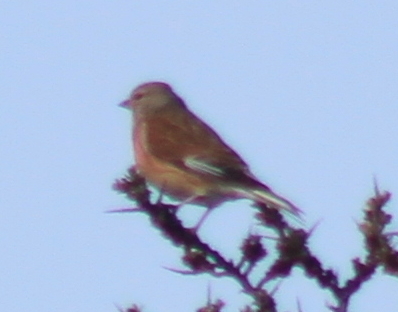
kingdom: Animalia
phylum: Chordata
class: Aves
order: Passeriformes
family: Fringillidae
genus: Linaria
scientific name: Linaria cannabina
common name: Common linnet
